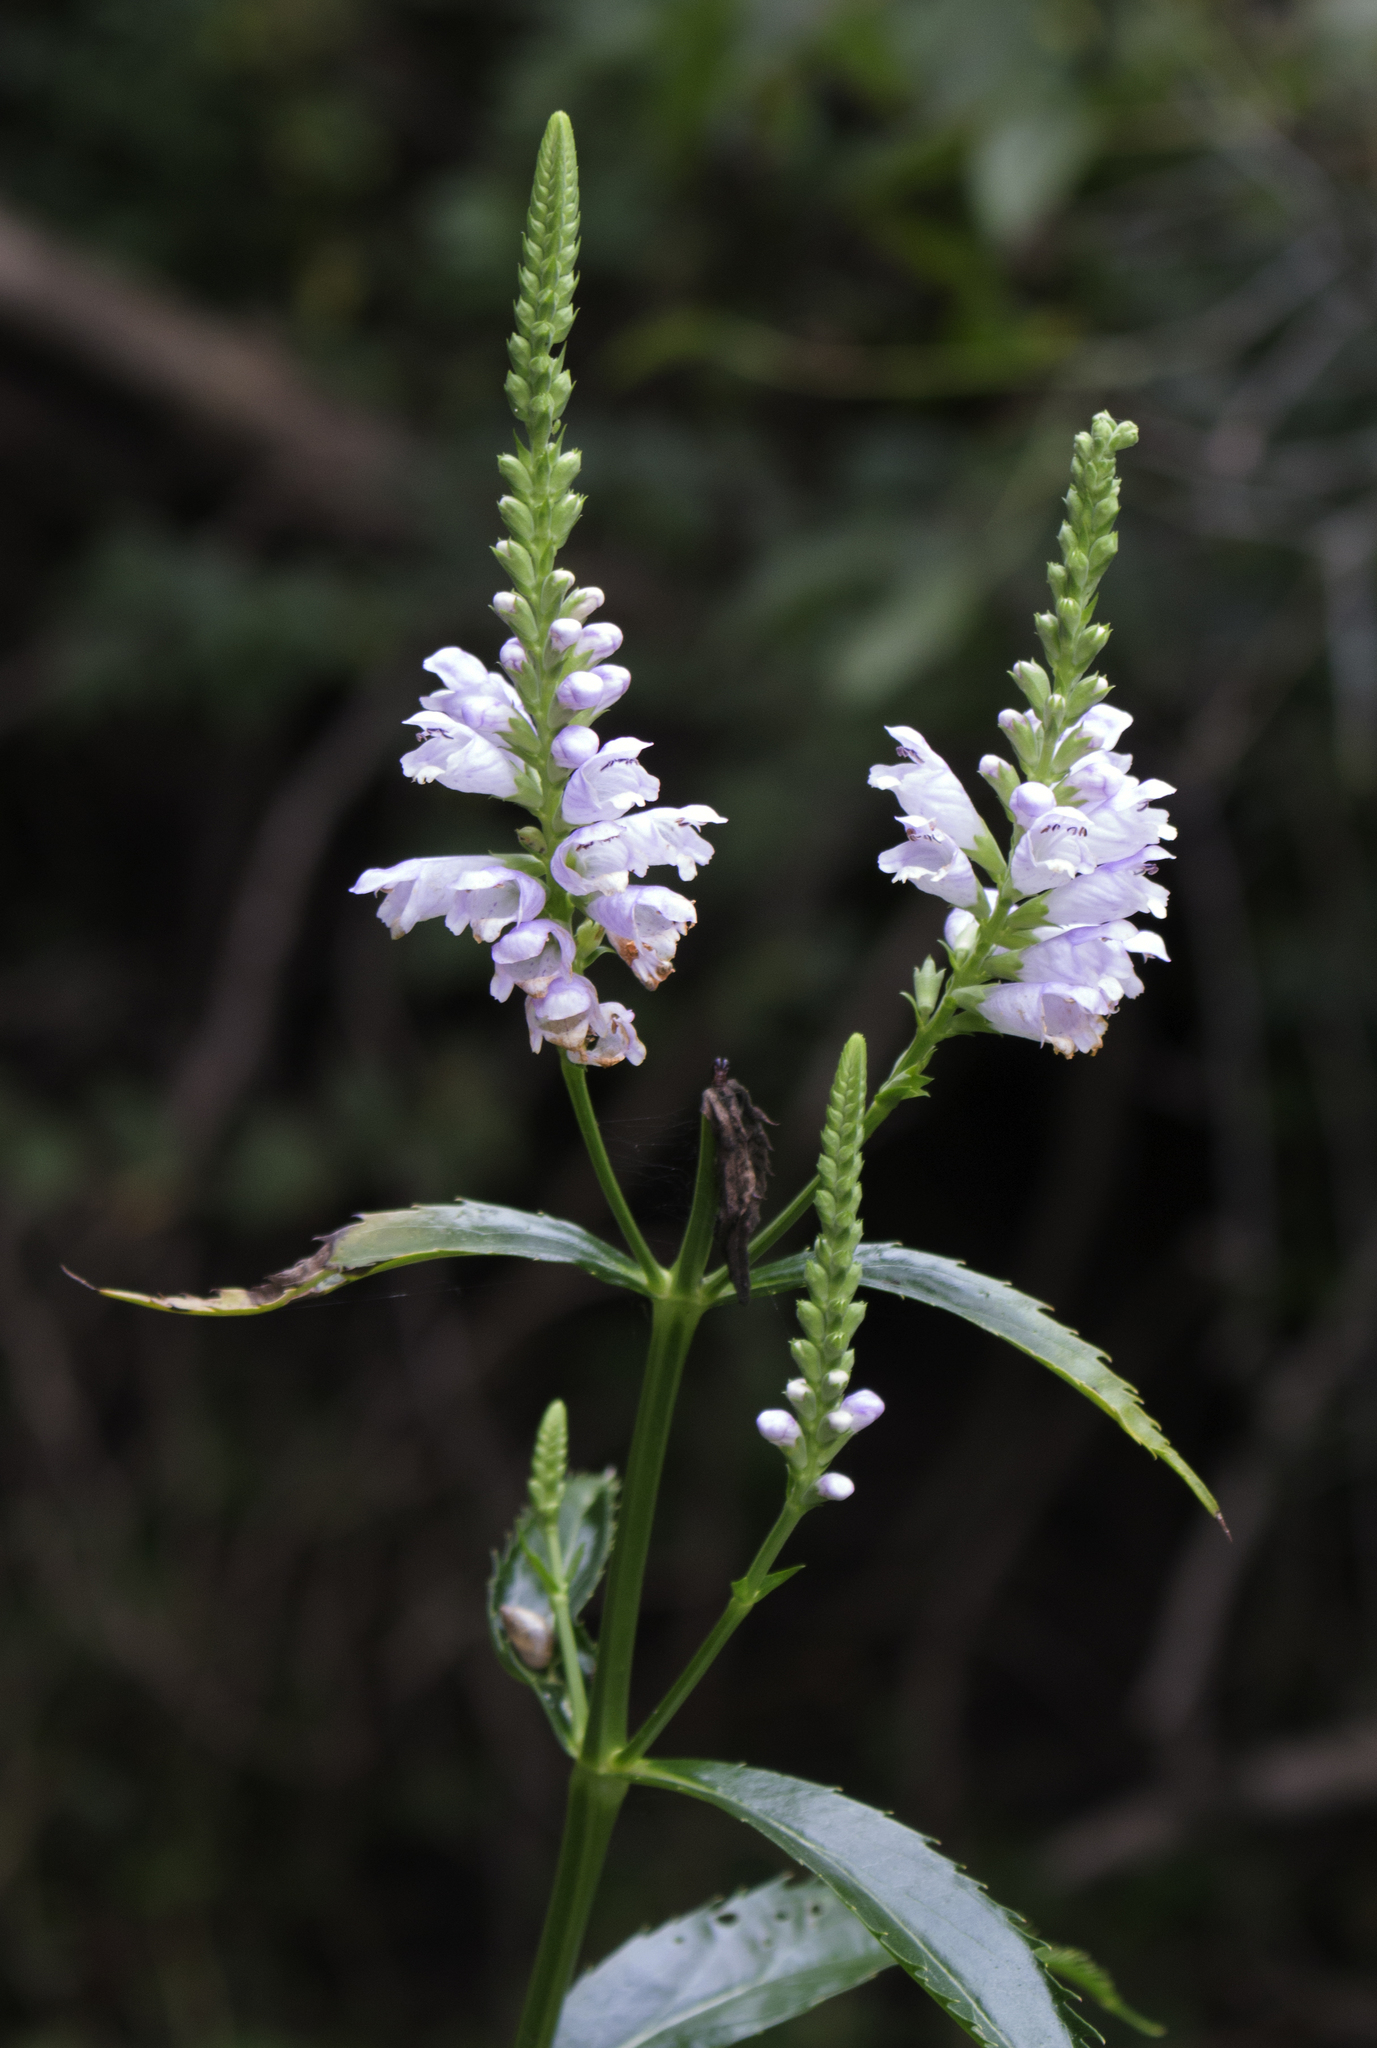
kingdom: Plantae
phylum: Tracheophyta
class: Magnoliopsida
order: Lamiales
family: Lamiaceae
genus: Physostegia
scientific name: Physostegia virginiana
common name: Obedient-plant
